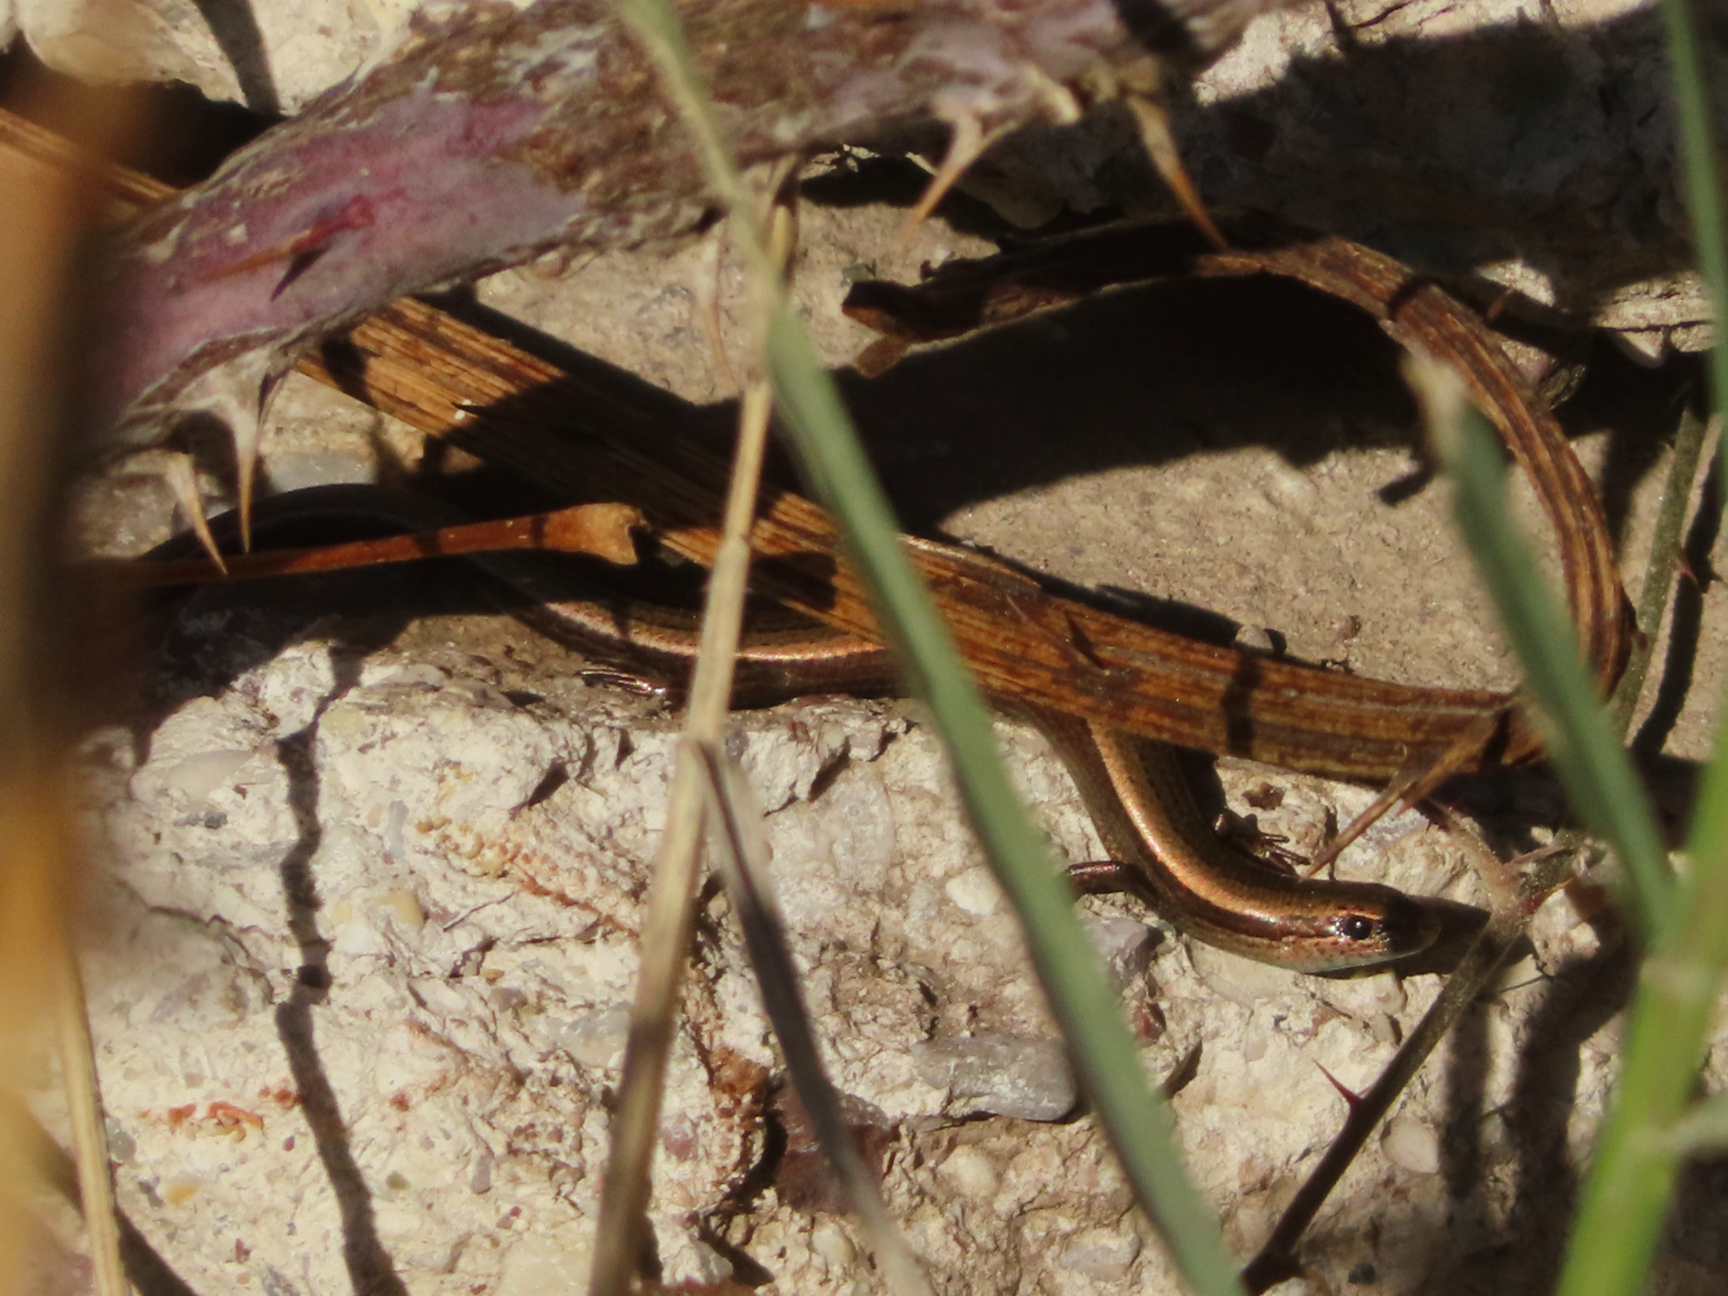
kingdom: Animalia
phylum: Chordata
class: Squamata
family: Scincidae
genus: Ablepharus
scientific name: Ablepharus kitaibelii
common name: Juniper skink
